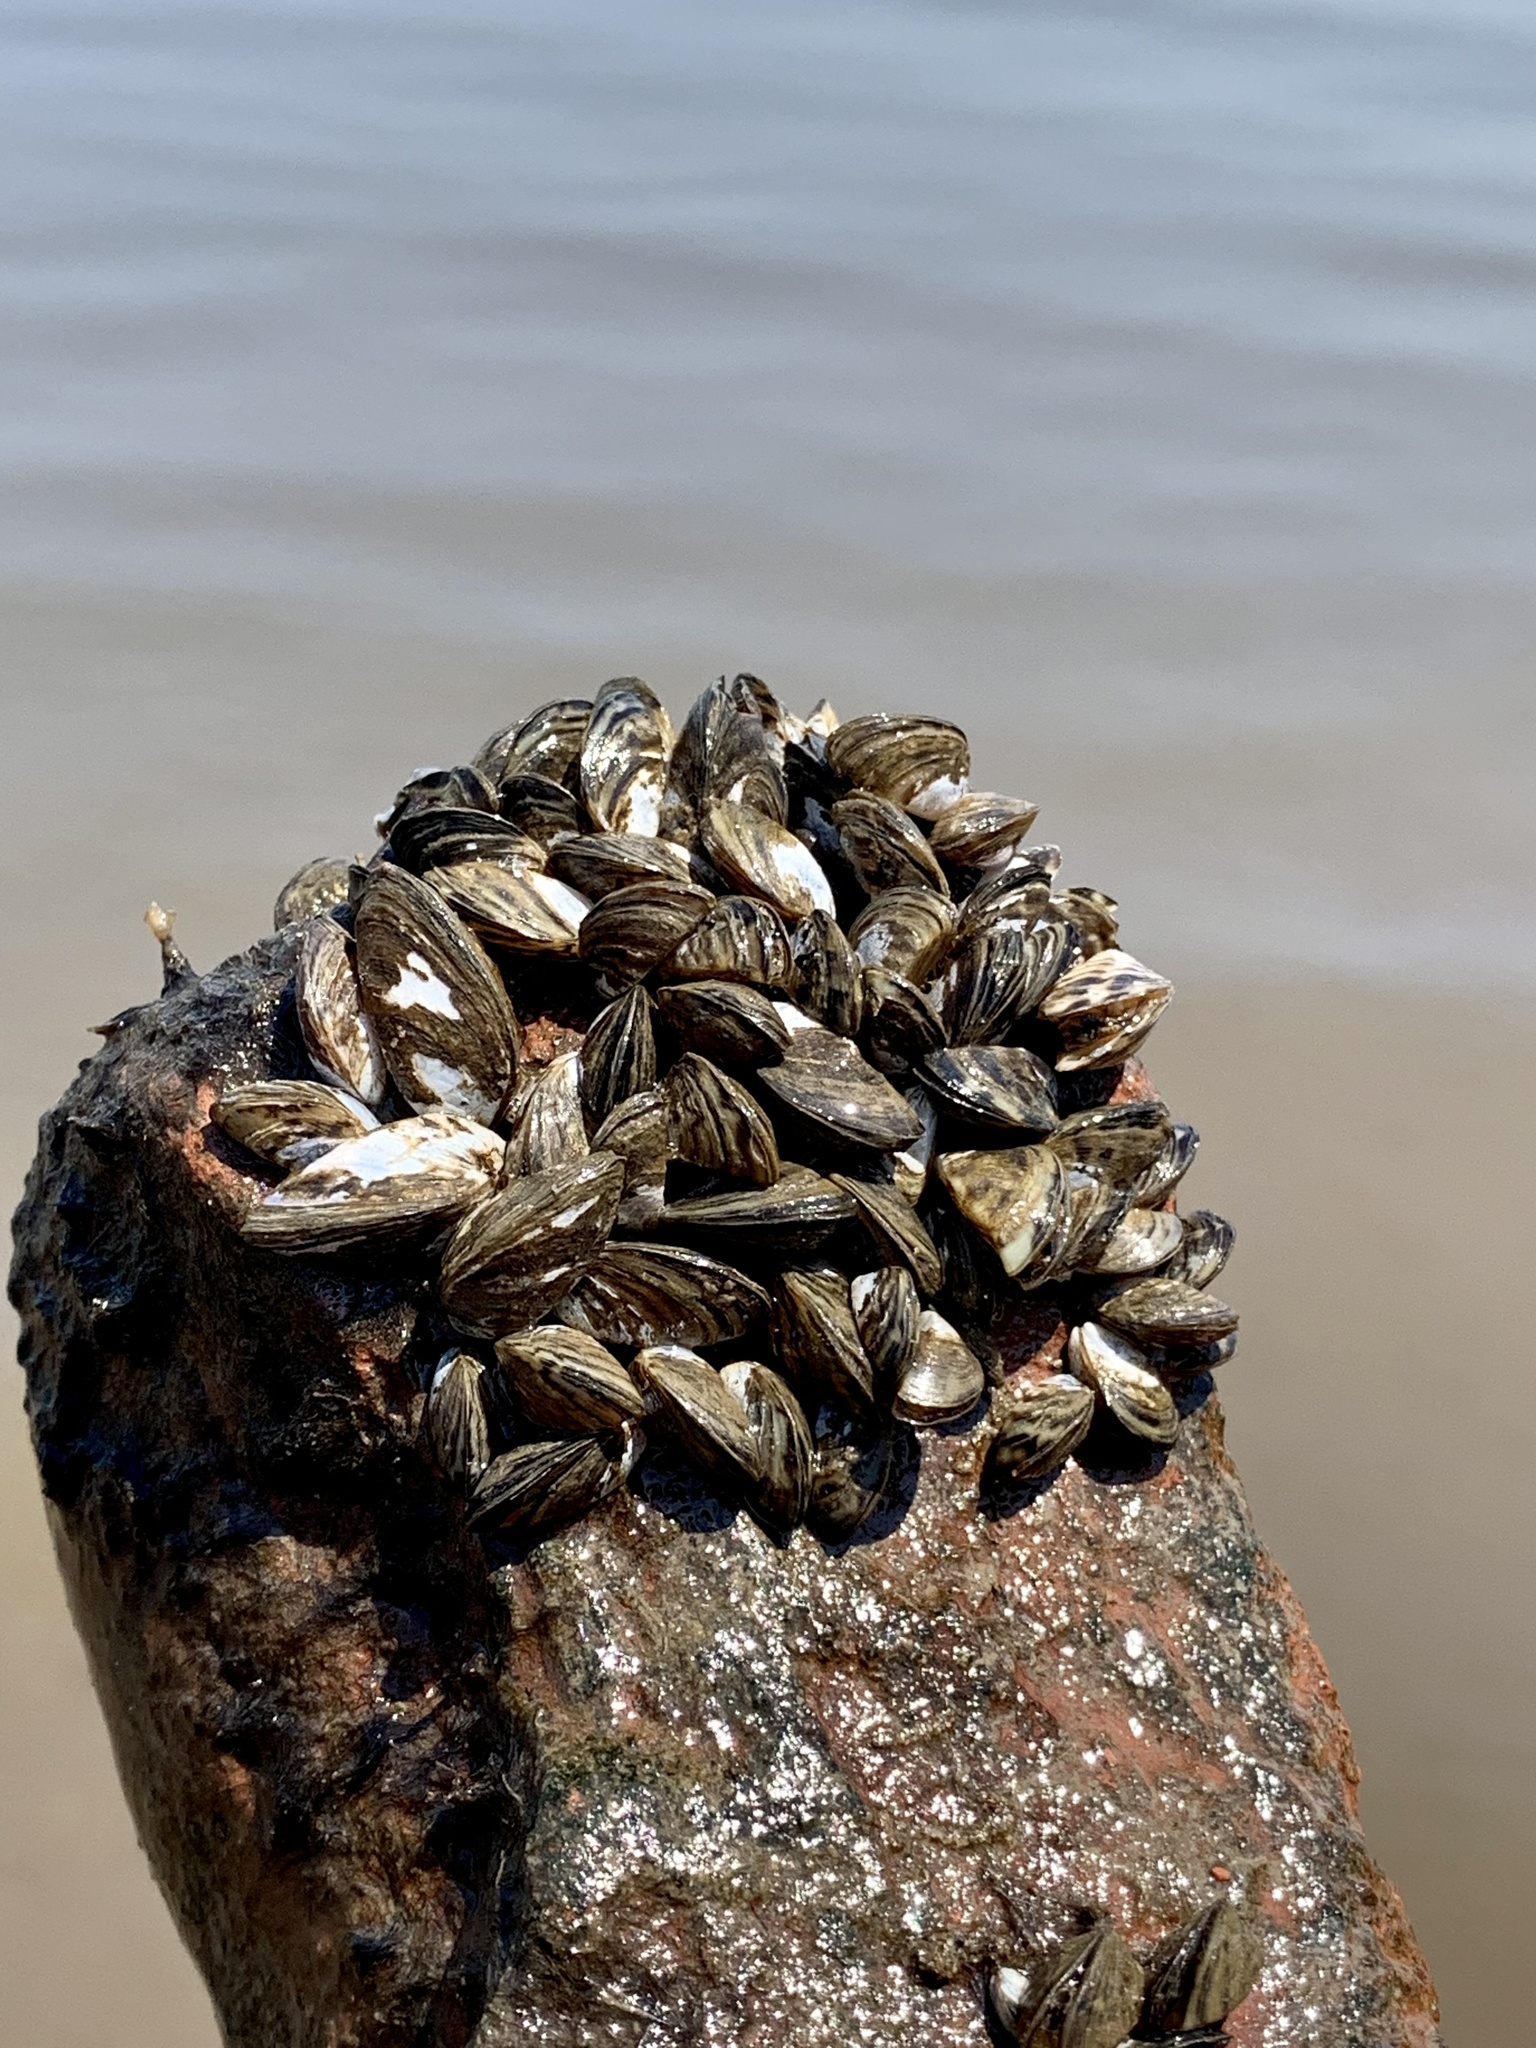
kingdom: Animalia
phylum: Mollusca
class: Bivalvia
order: Myida
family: Dreissenidae
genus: Dreissena
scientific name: Dreissena polymorpha
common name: Zebra mussel
